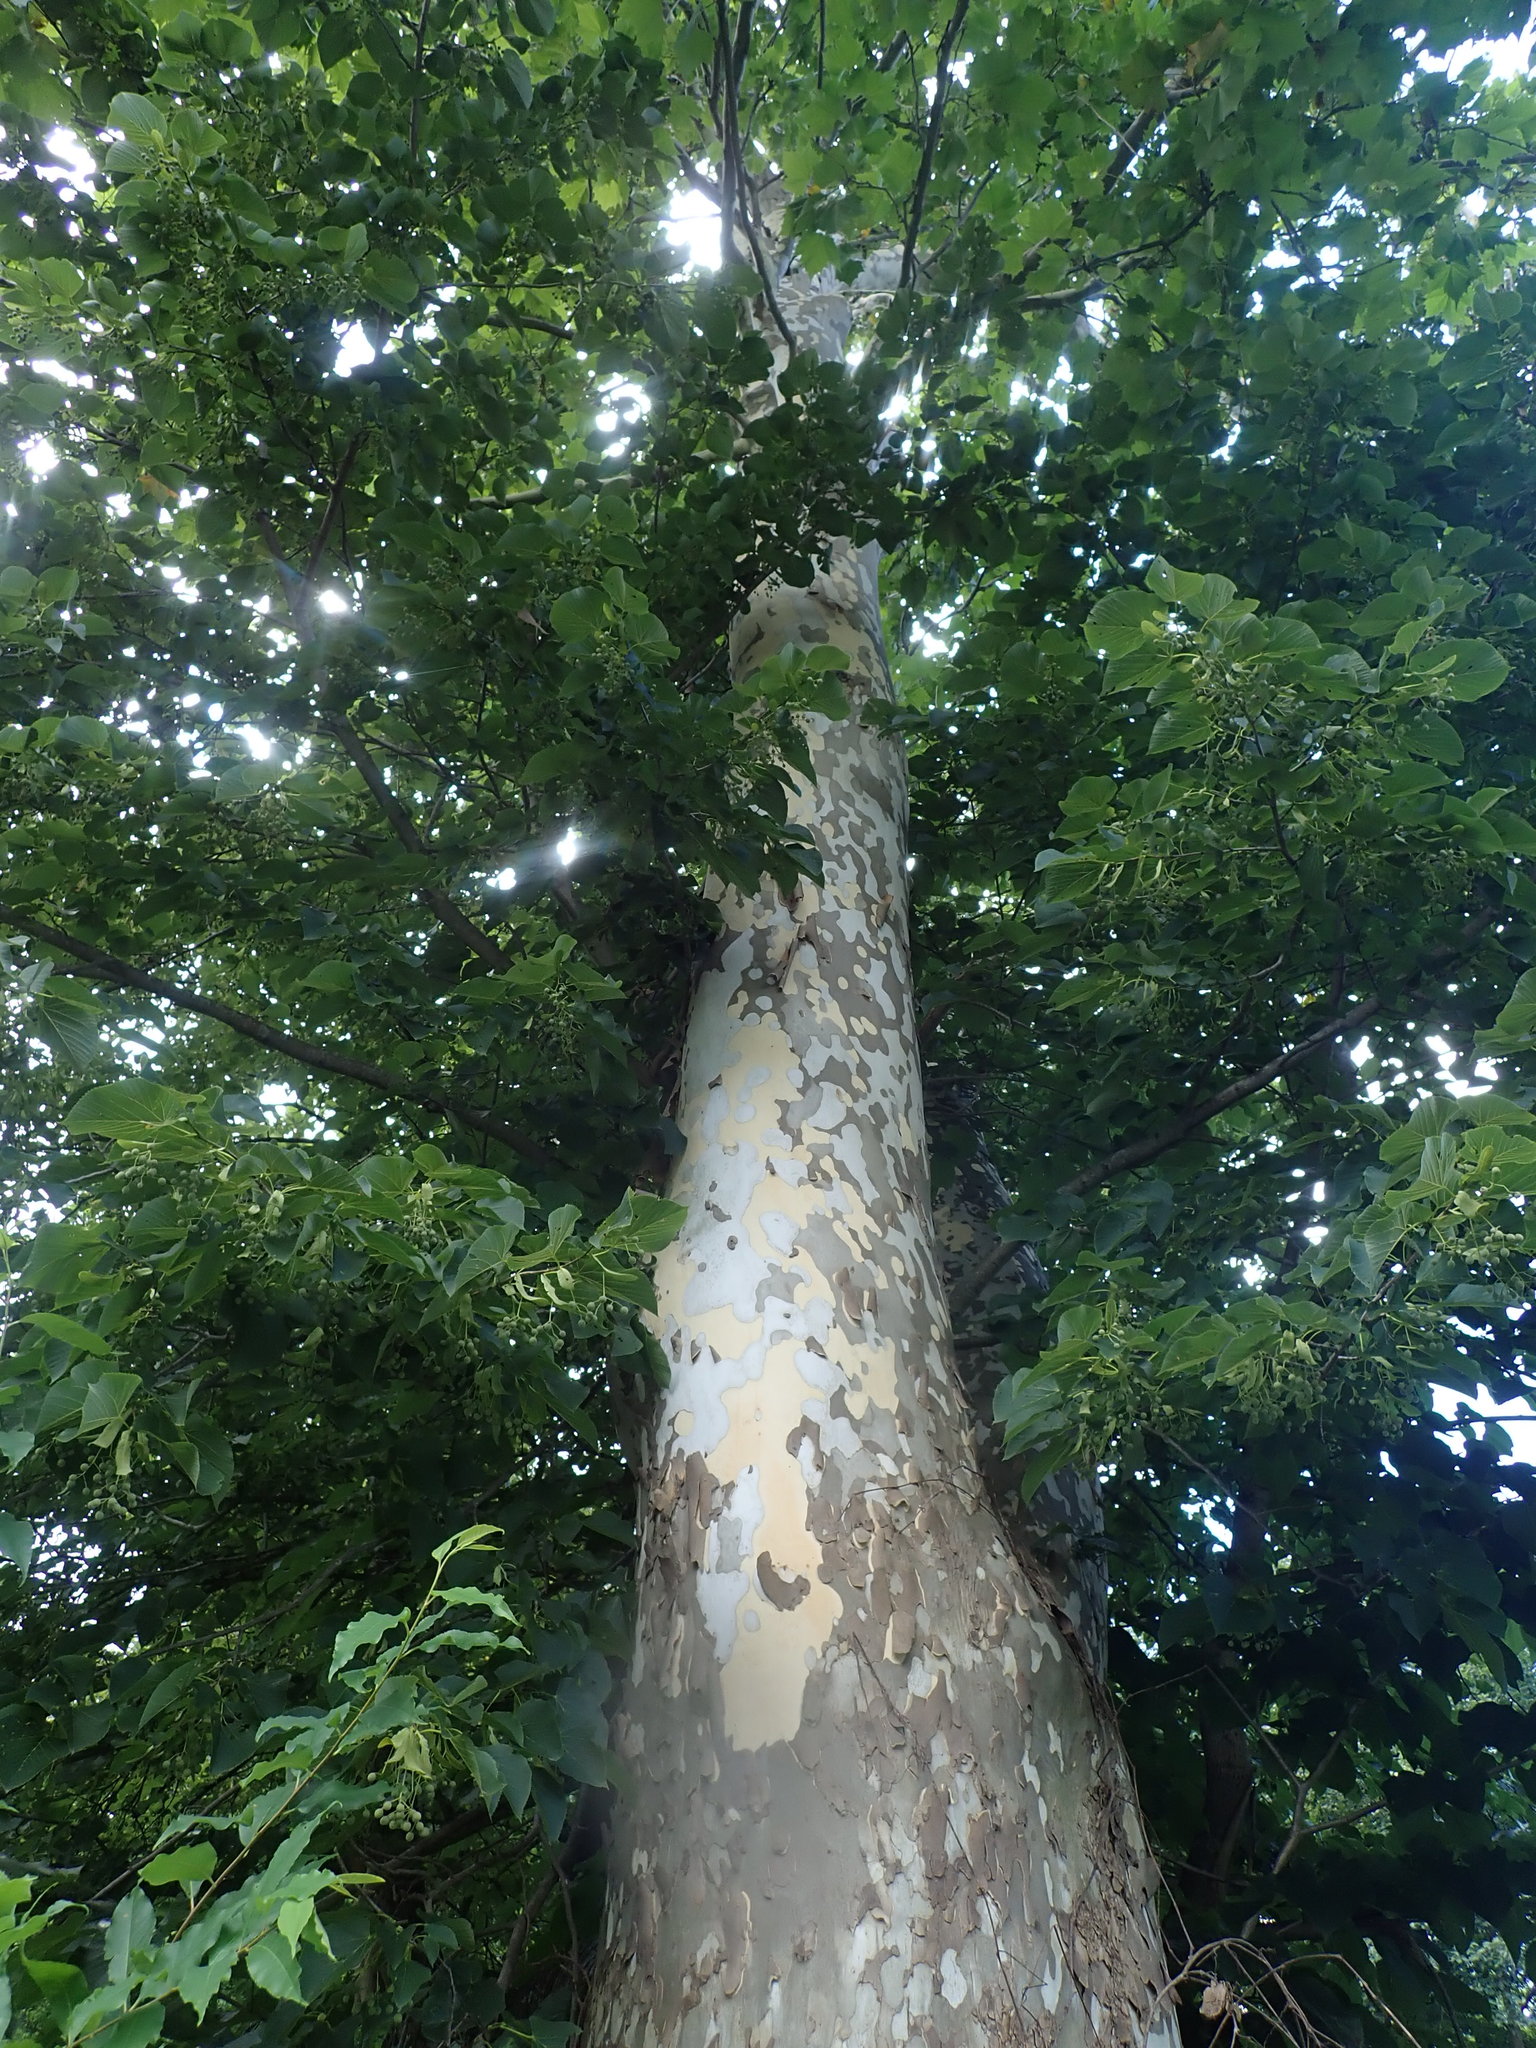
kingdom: Plantae
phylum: Tracheophyta
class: Magnoliopsida
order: Proteales
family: Platanaceae
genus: Platanus
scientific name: Platanus occidentalis
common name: American sycamore
